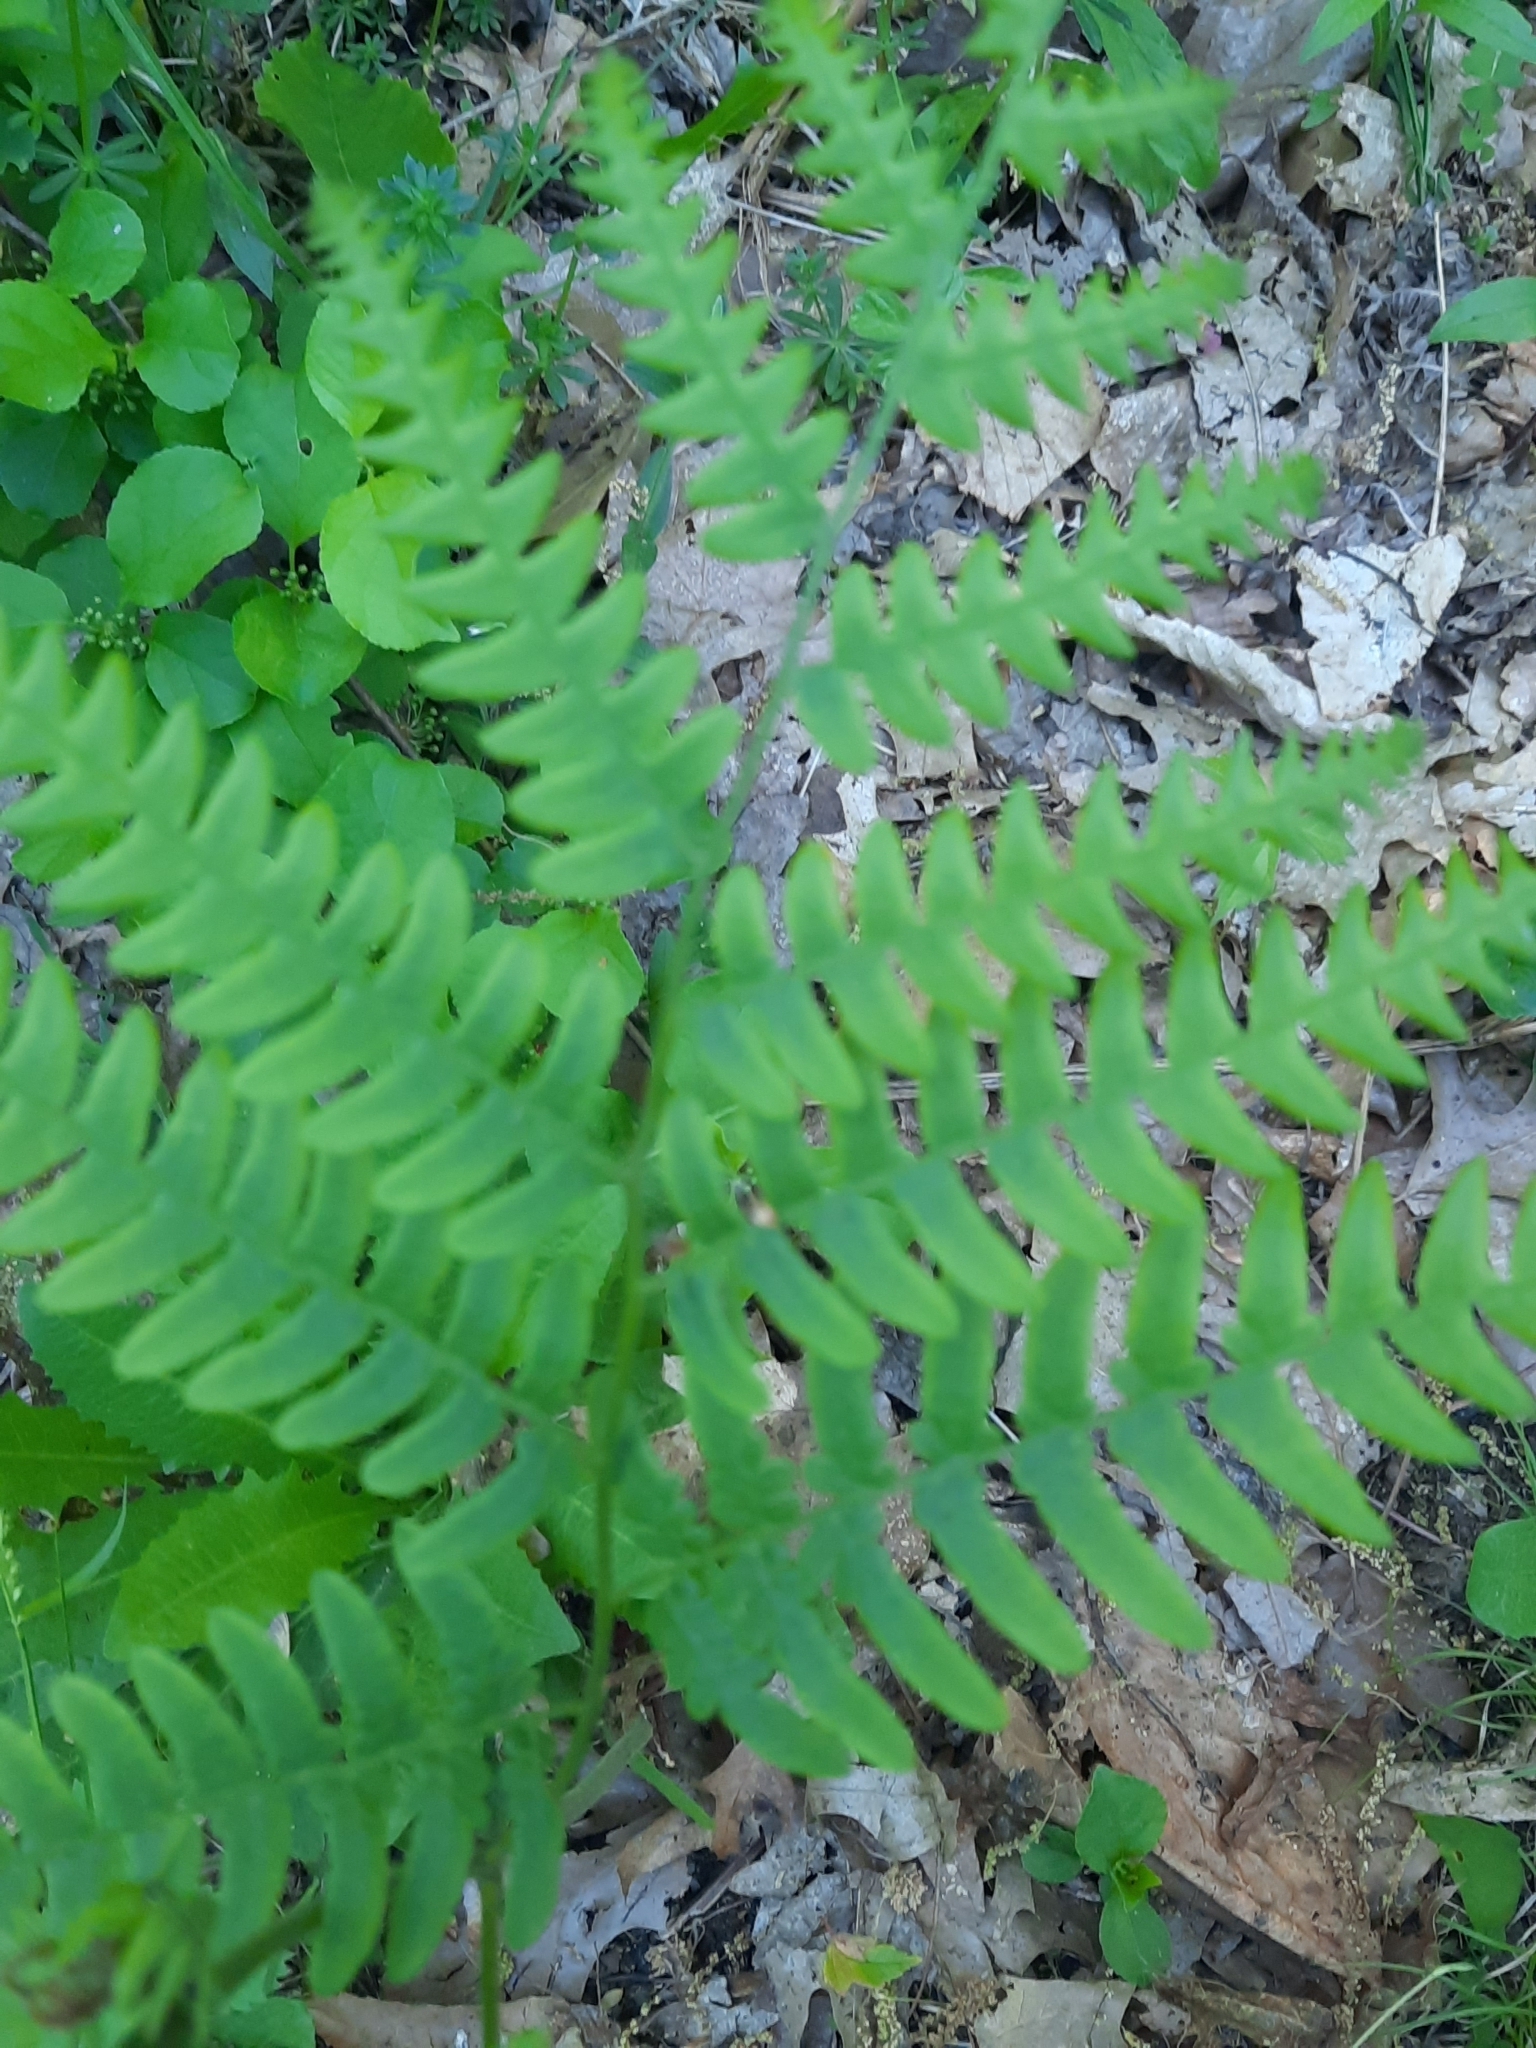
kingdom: Plantae
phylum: Tracheophyta
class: Polypodiopsida
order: Polypodiales
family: Dennstaedtiaceae
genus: Pteridium
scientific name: Pteridium aquilinum
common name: Bracken
